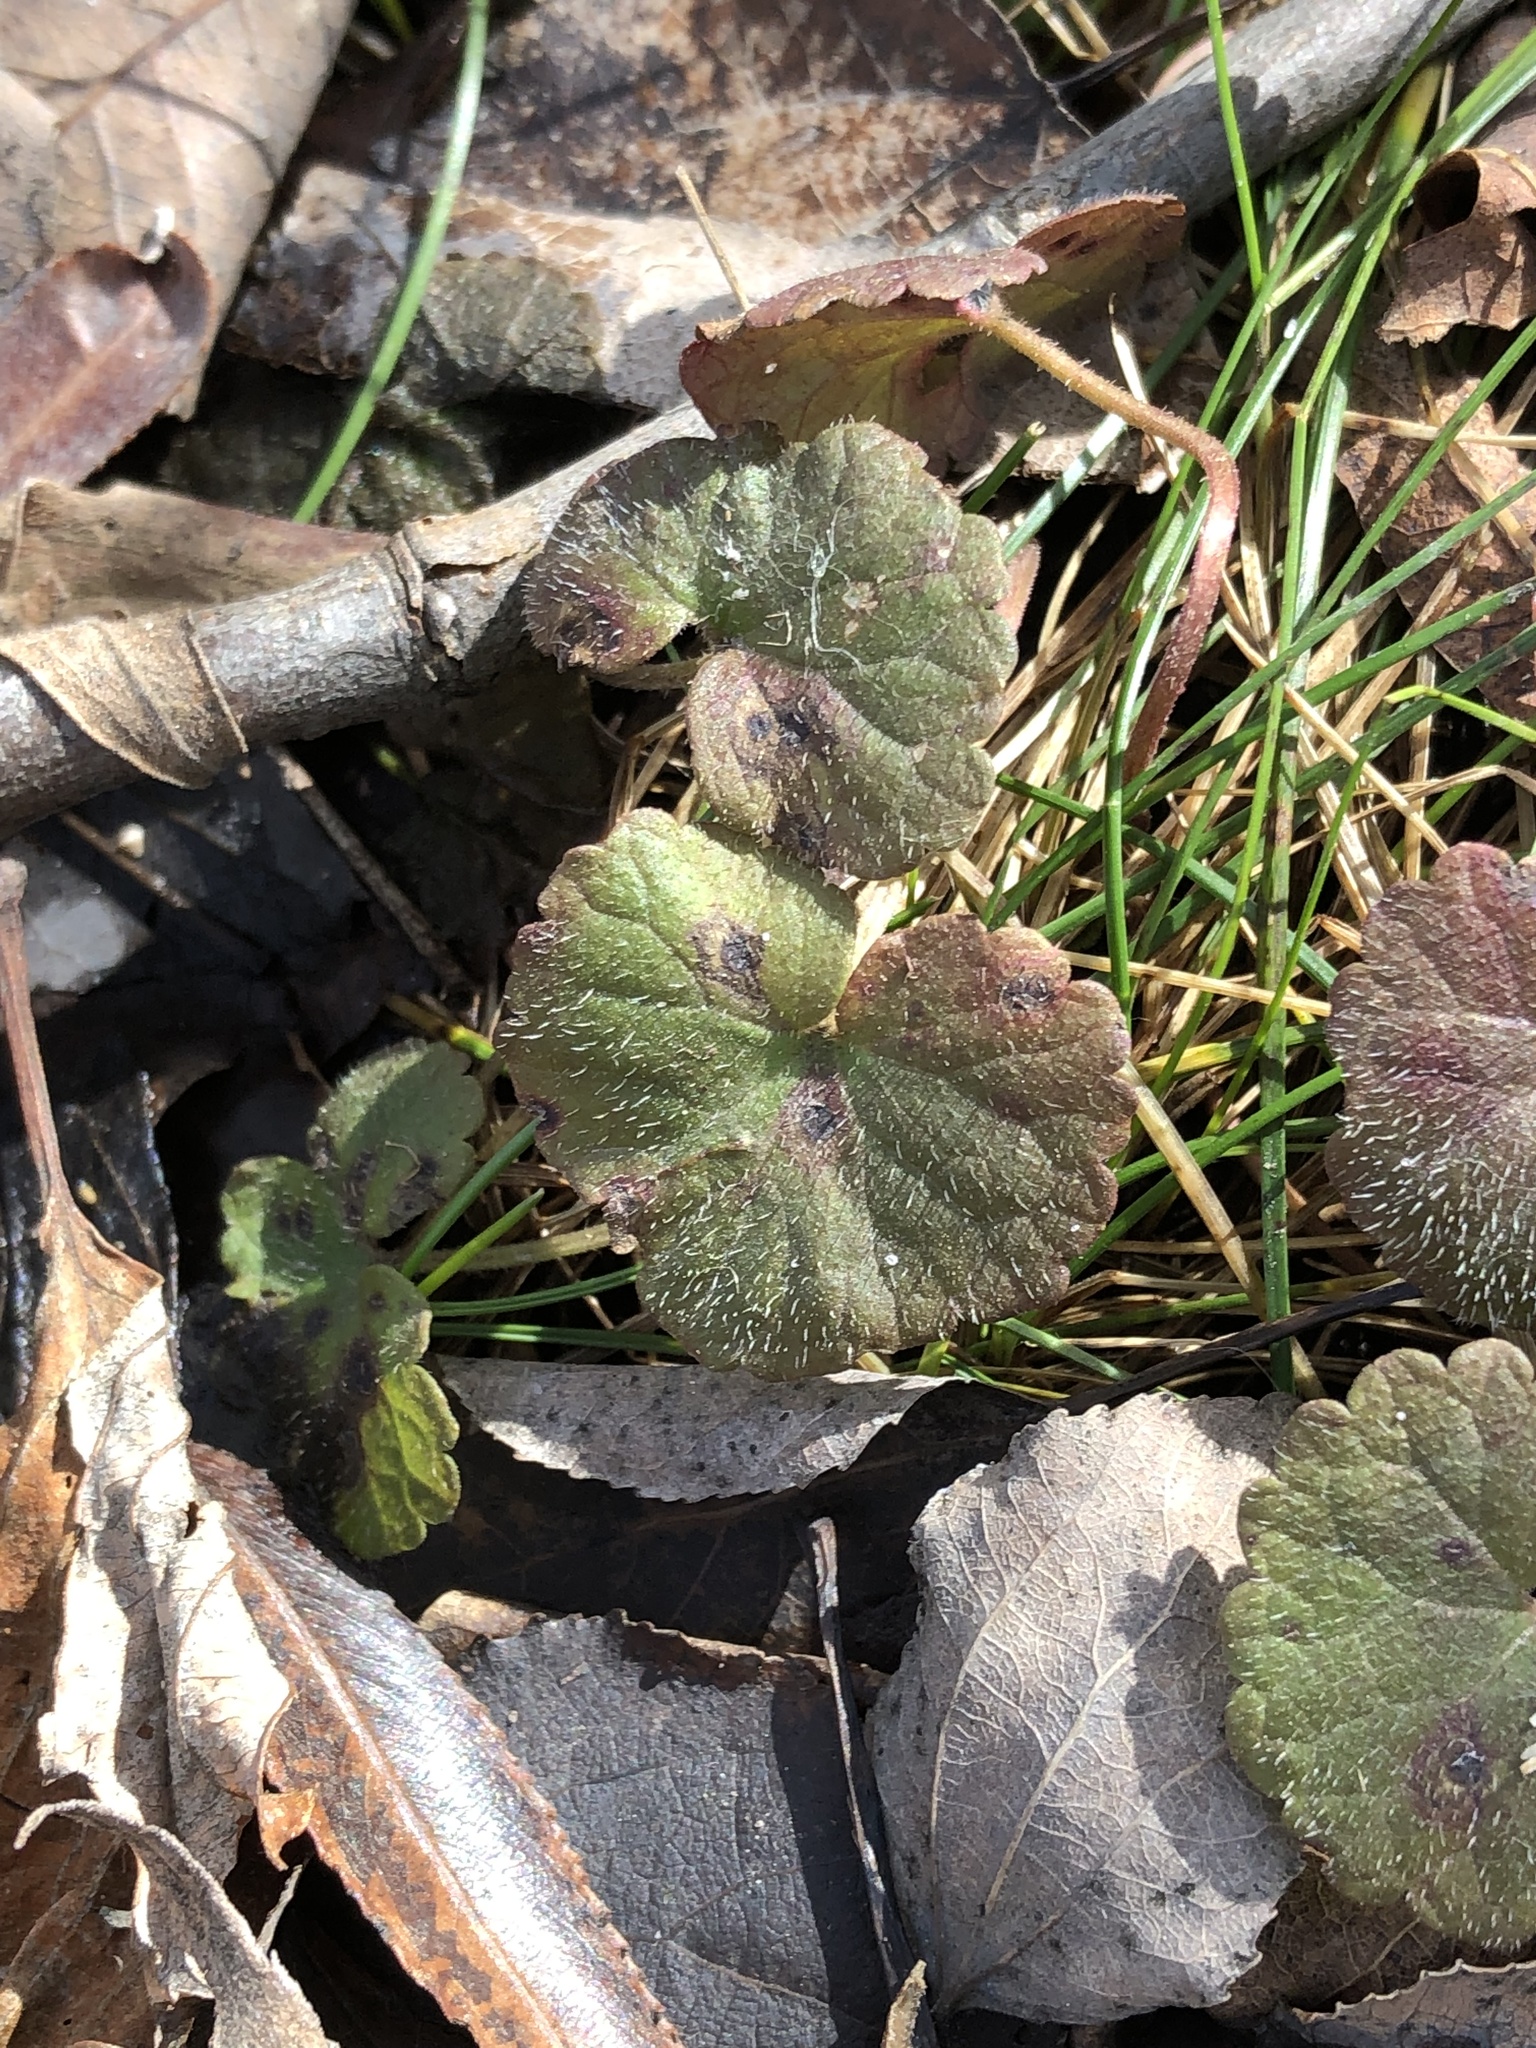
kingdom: Plantae
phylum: Tracheophyta
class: Magnoliopsida
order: Lamiales
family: Lamiaceae
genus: Glechoma
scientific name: Glechoma hederacea
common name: Ground ivy
